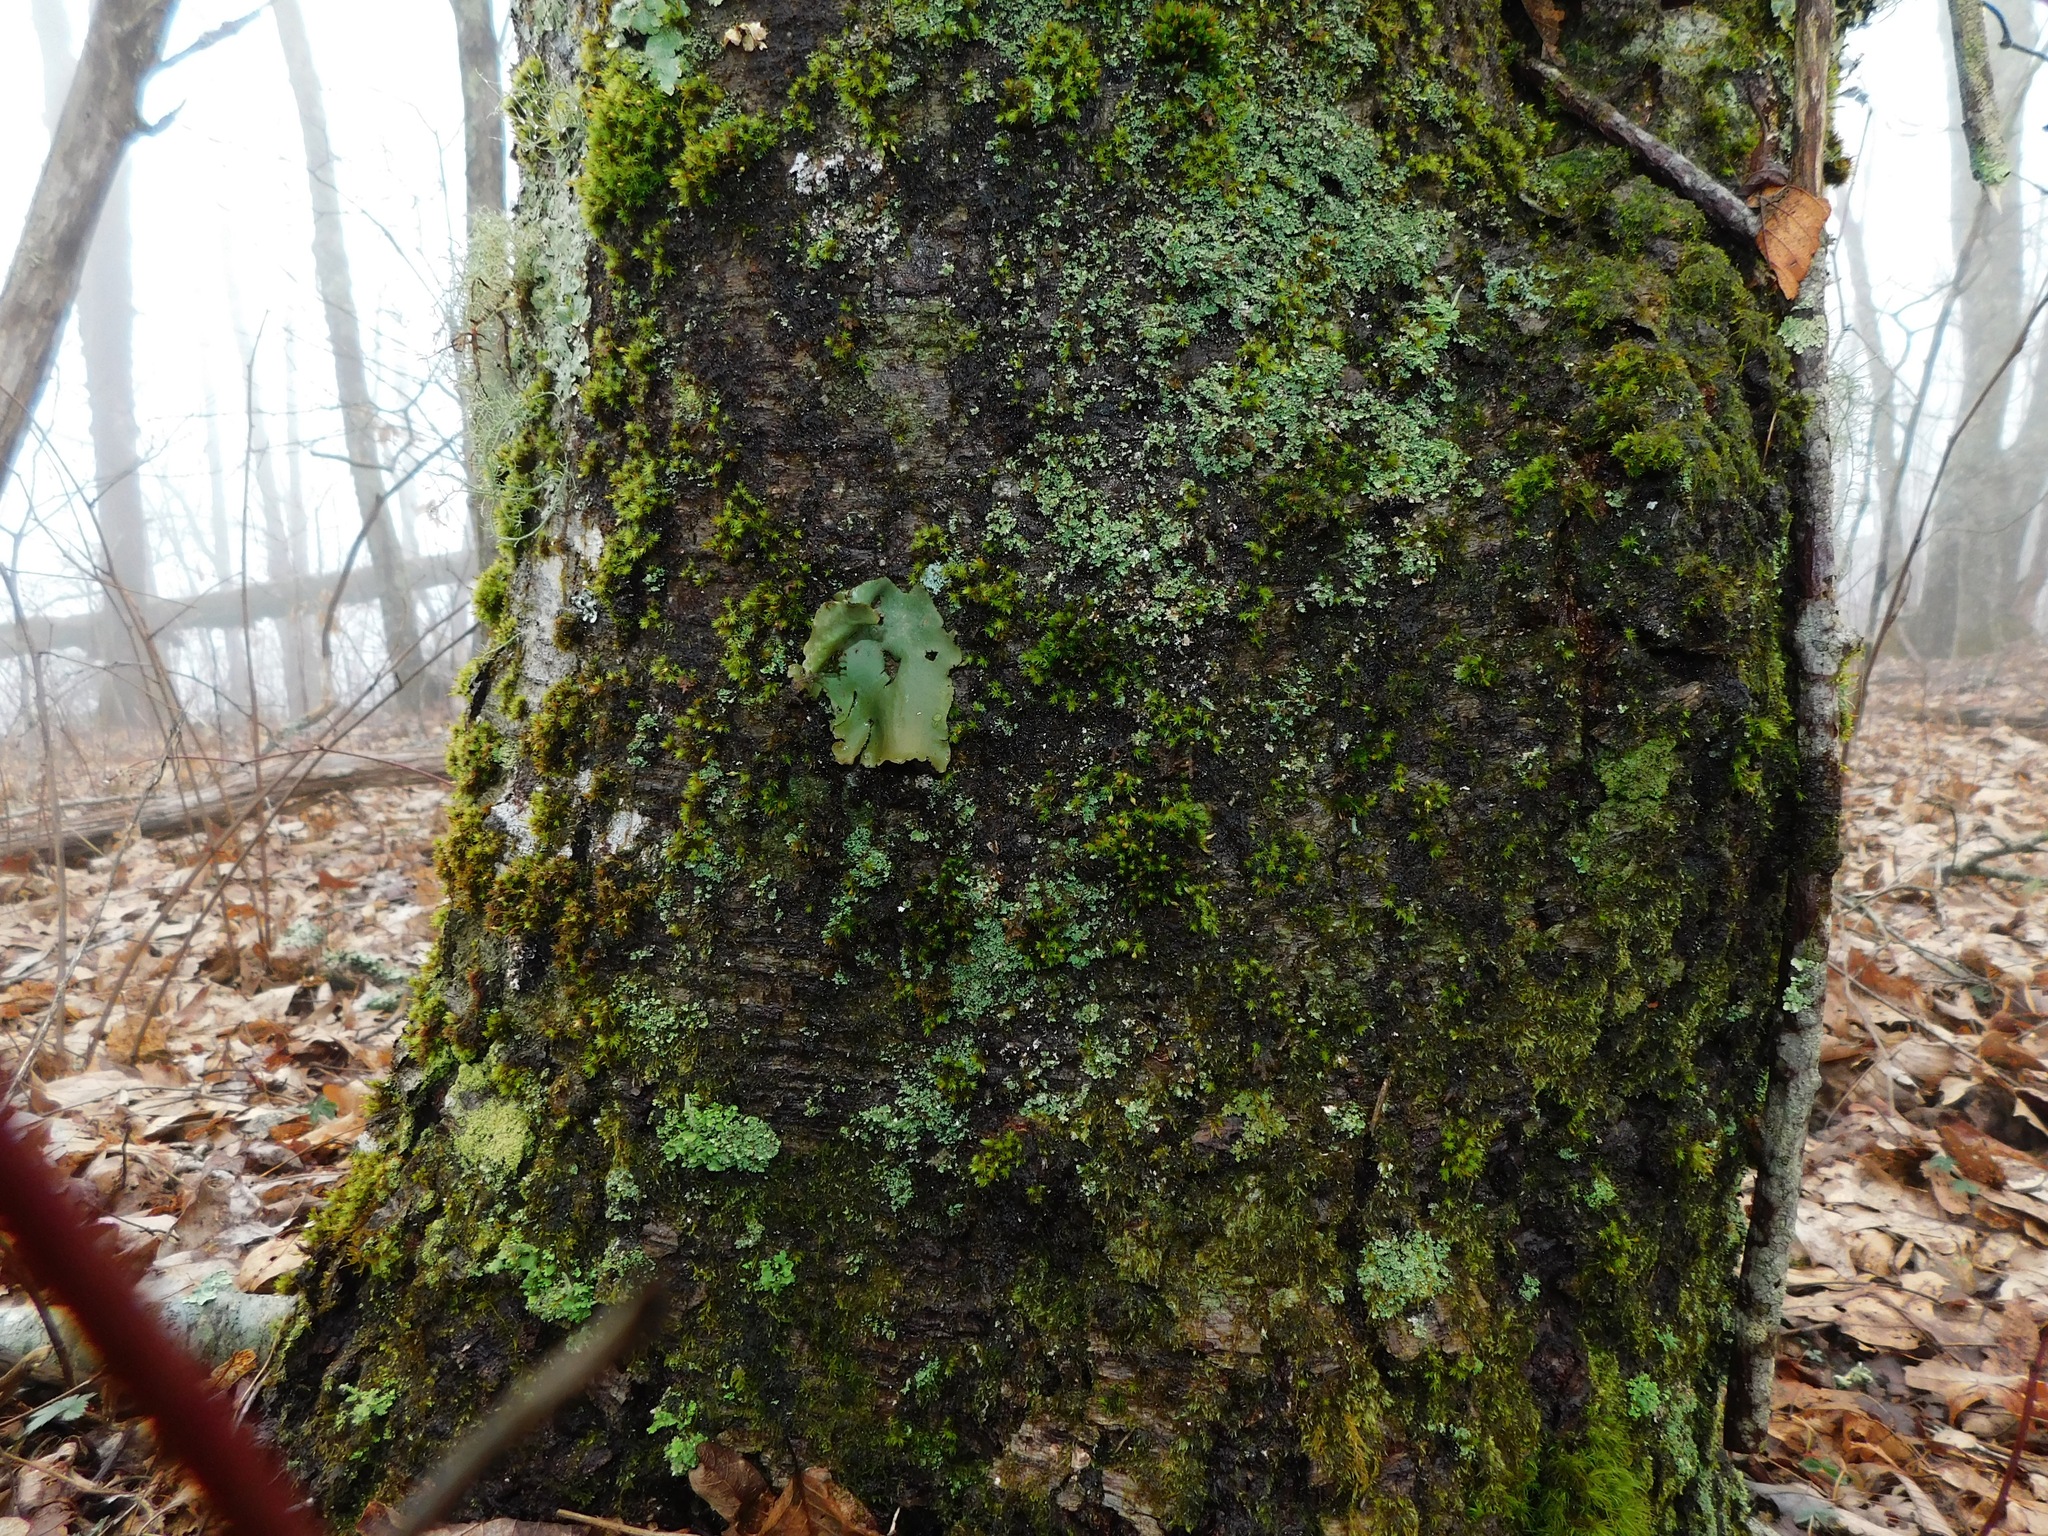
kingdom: Fungi
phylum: Ascomycota
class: Lecanoromycetes
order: Umbilicariales
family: Umbilicariaceae
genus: Umbilicaria
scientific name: Umbilicaria mammulata
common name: Smooth rock tripe
